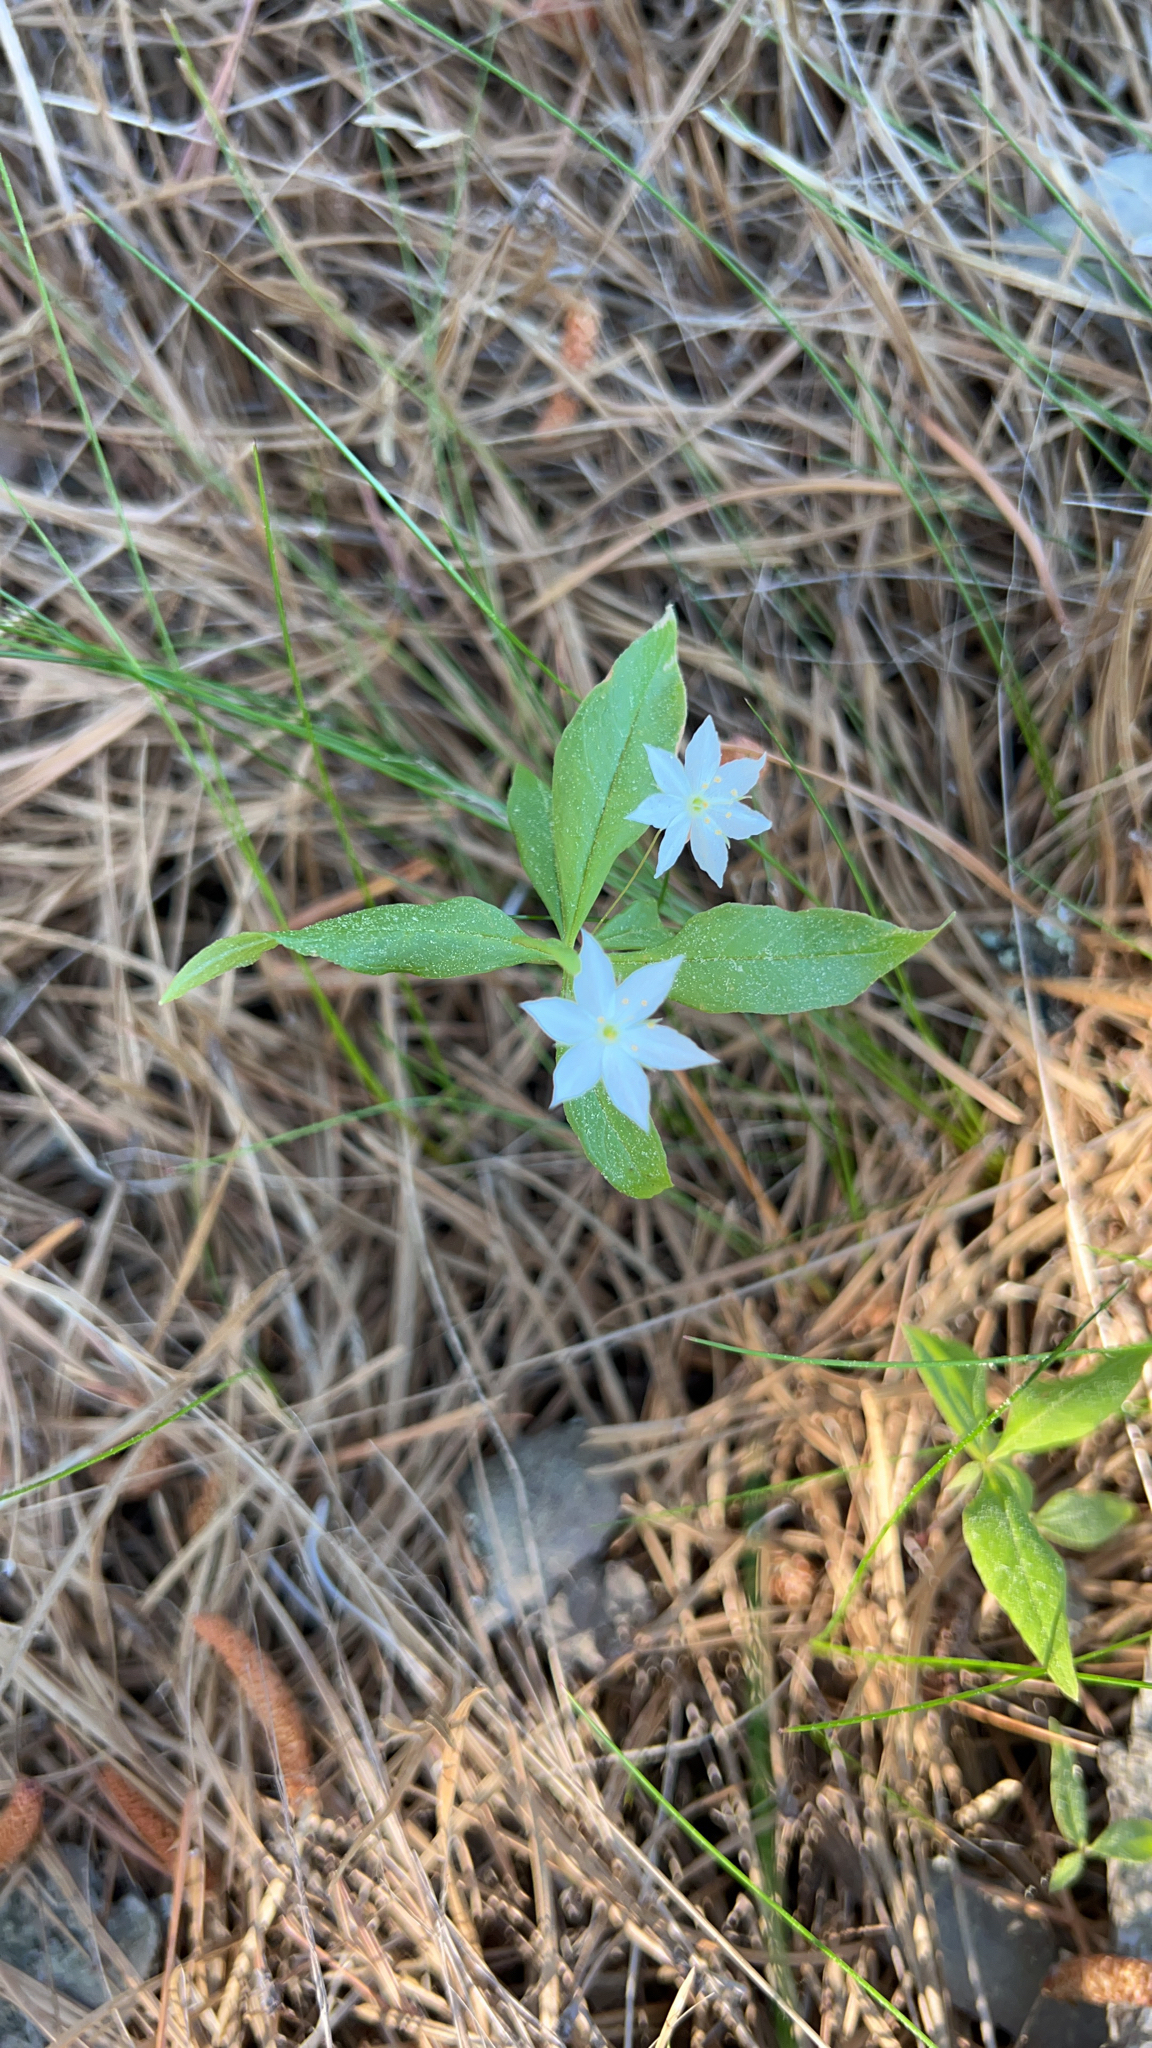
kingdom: Plantae
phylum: Tracheophyta
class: Magnoliopsida
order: Ericales
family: Primulaceae
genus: Lysimachia
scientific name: Lysimachia borealis
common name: American starflower
